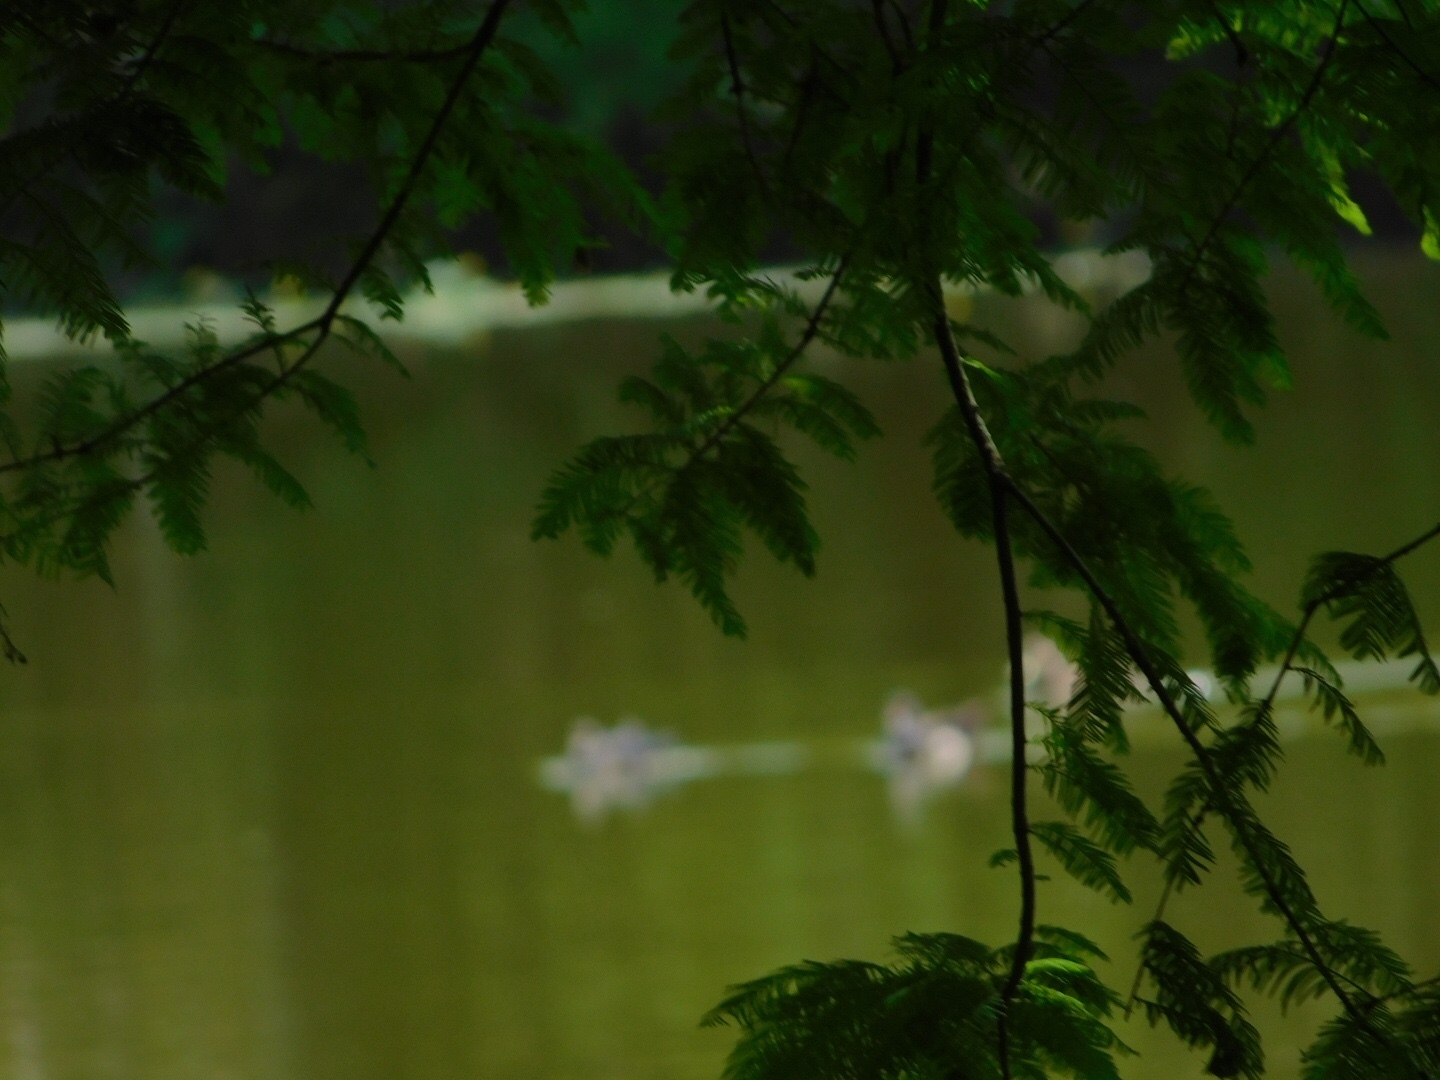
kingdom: Animalia
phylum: Chordata
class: Aves
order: Anseriformes
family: Anatidae
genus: Aix
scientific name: Aix sponsa
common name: Wood duck
